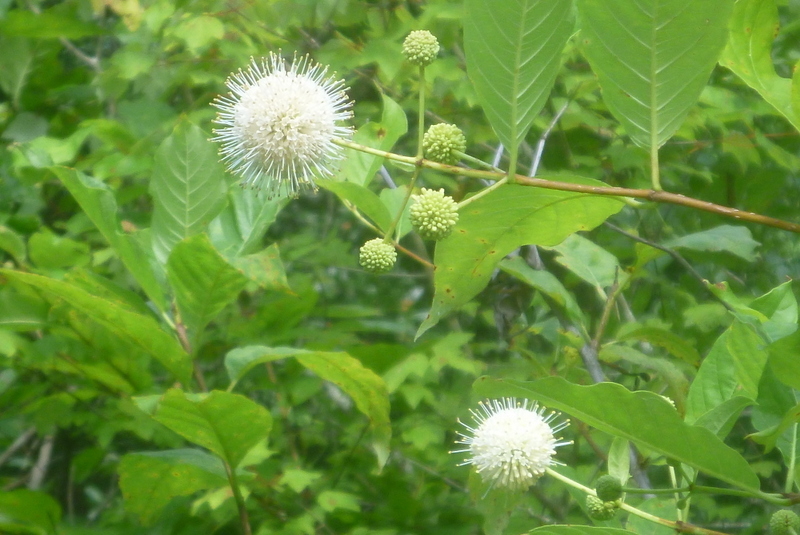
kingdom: Plantae
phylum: Tracheophyta
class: Magnoliopsida
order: Gentianales
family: Rubiaceae
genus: Cephalanthus
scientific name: Cephalanthus occidentalis
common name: Button-willow
